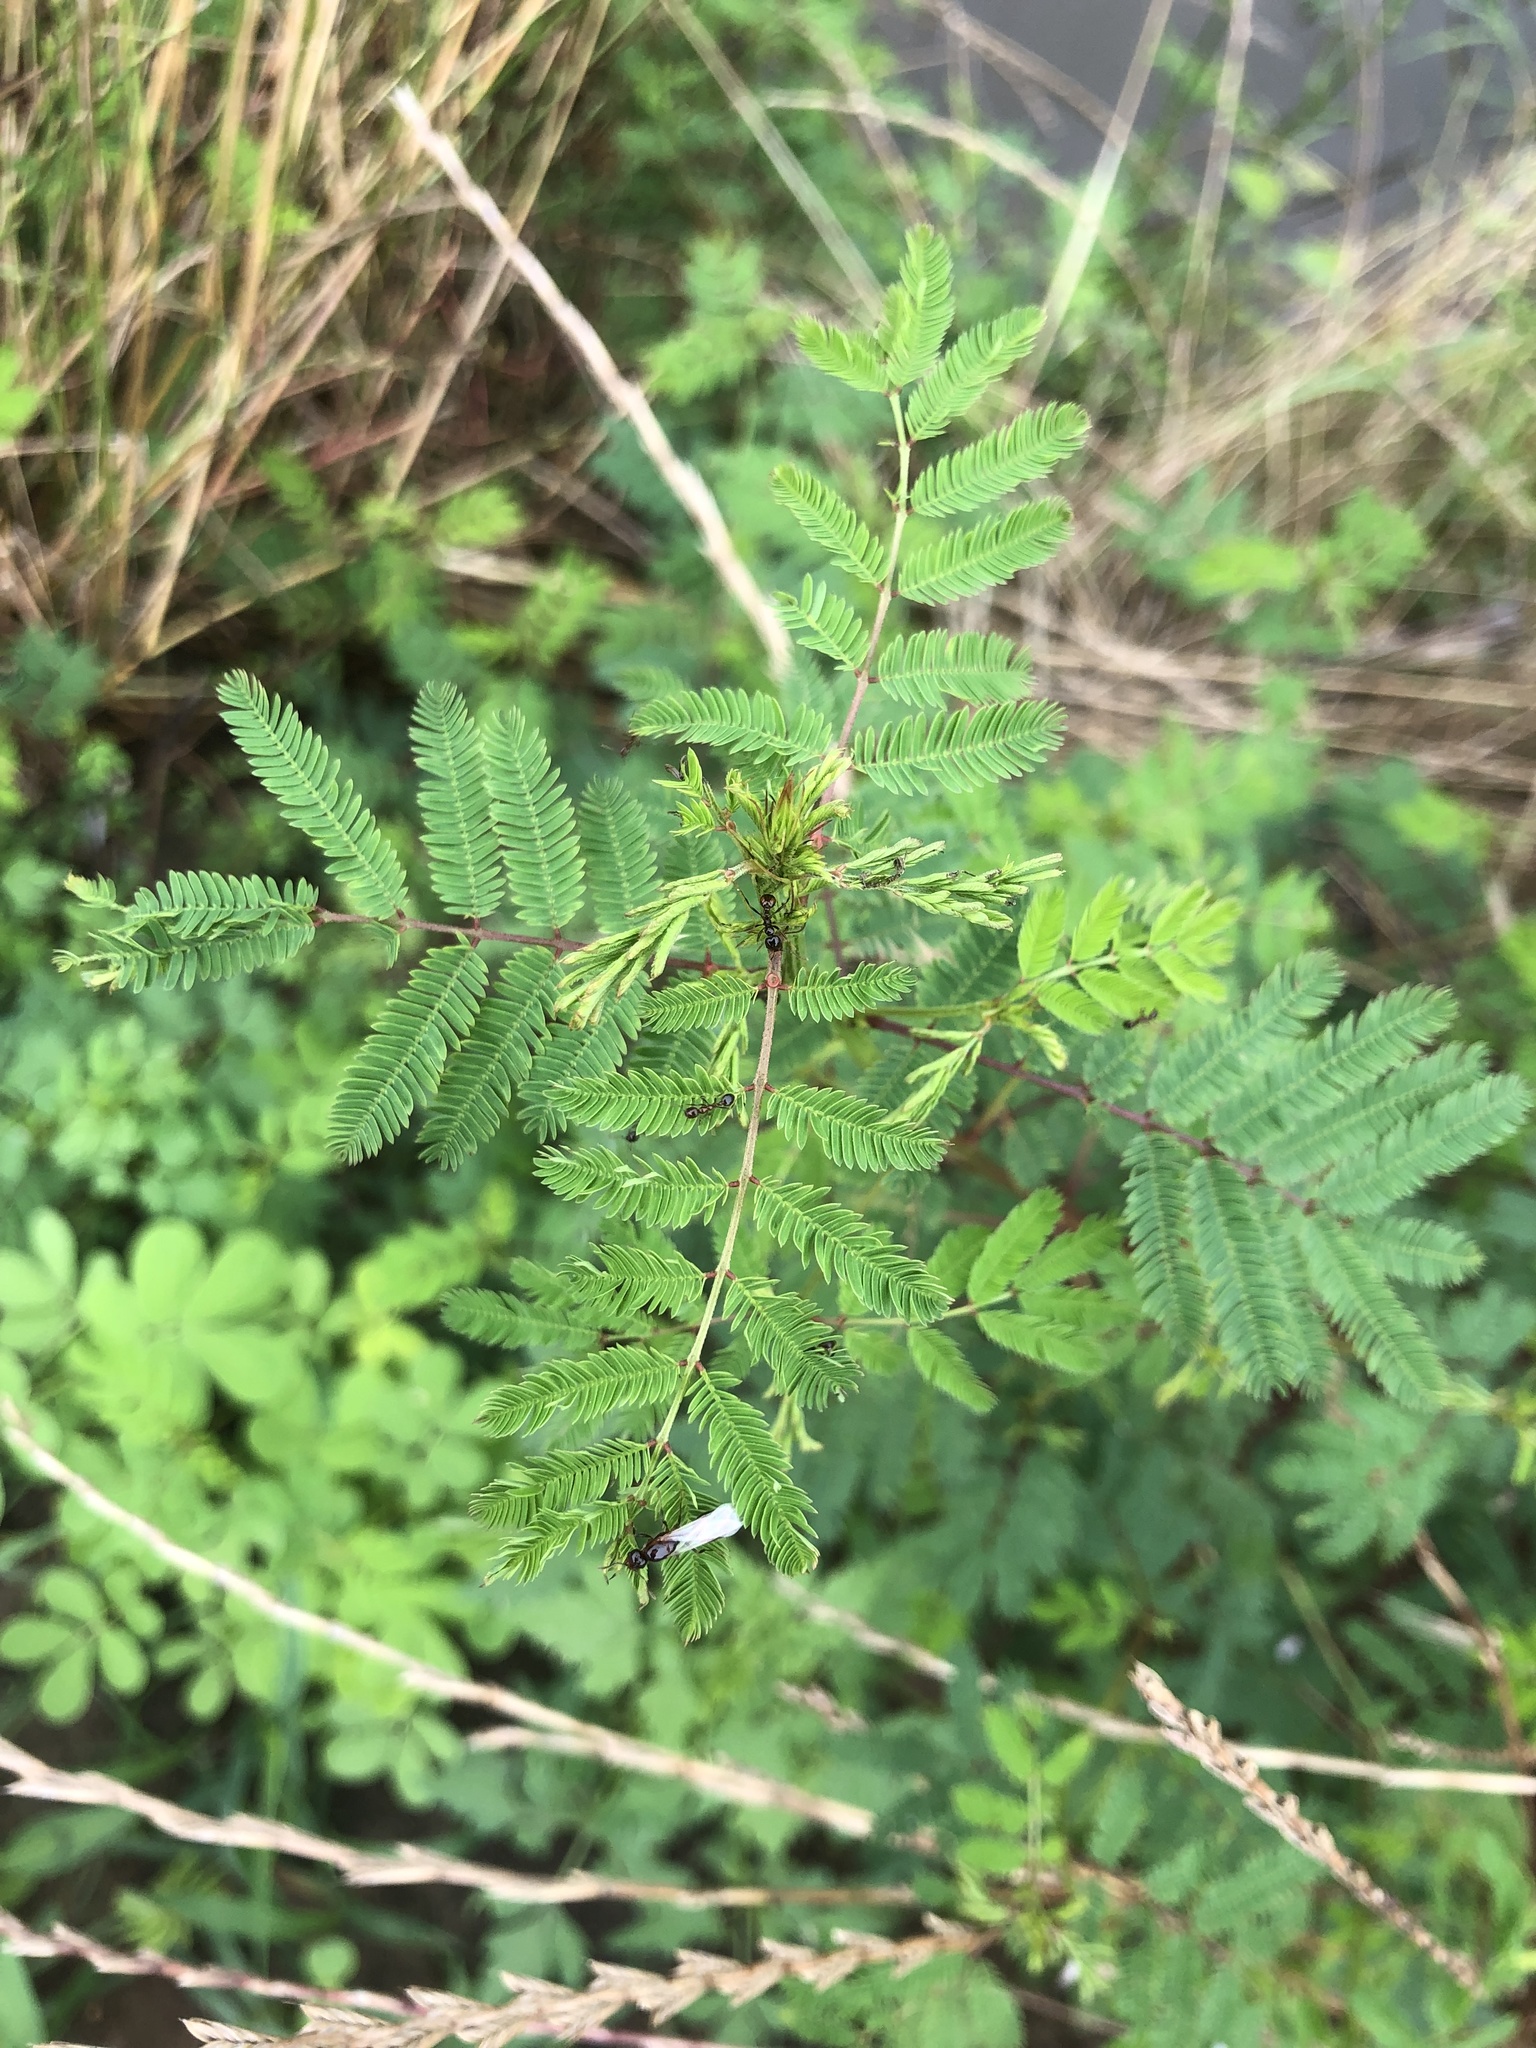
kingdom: Plantae
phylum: Tracheophyta
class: Magnoliopsida
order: Fabales
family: Fabaceae
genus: Desmanthus
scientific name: Desmanthus illinoensis
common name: Illinois bundle-flower
